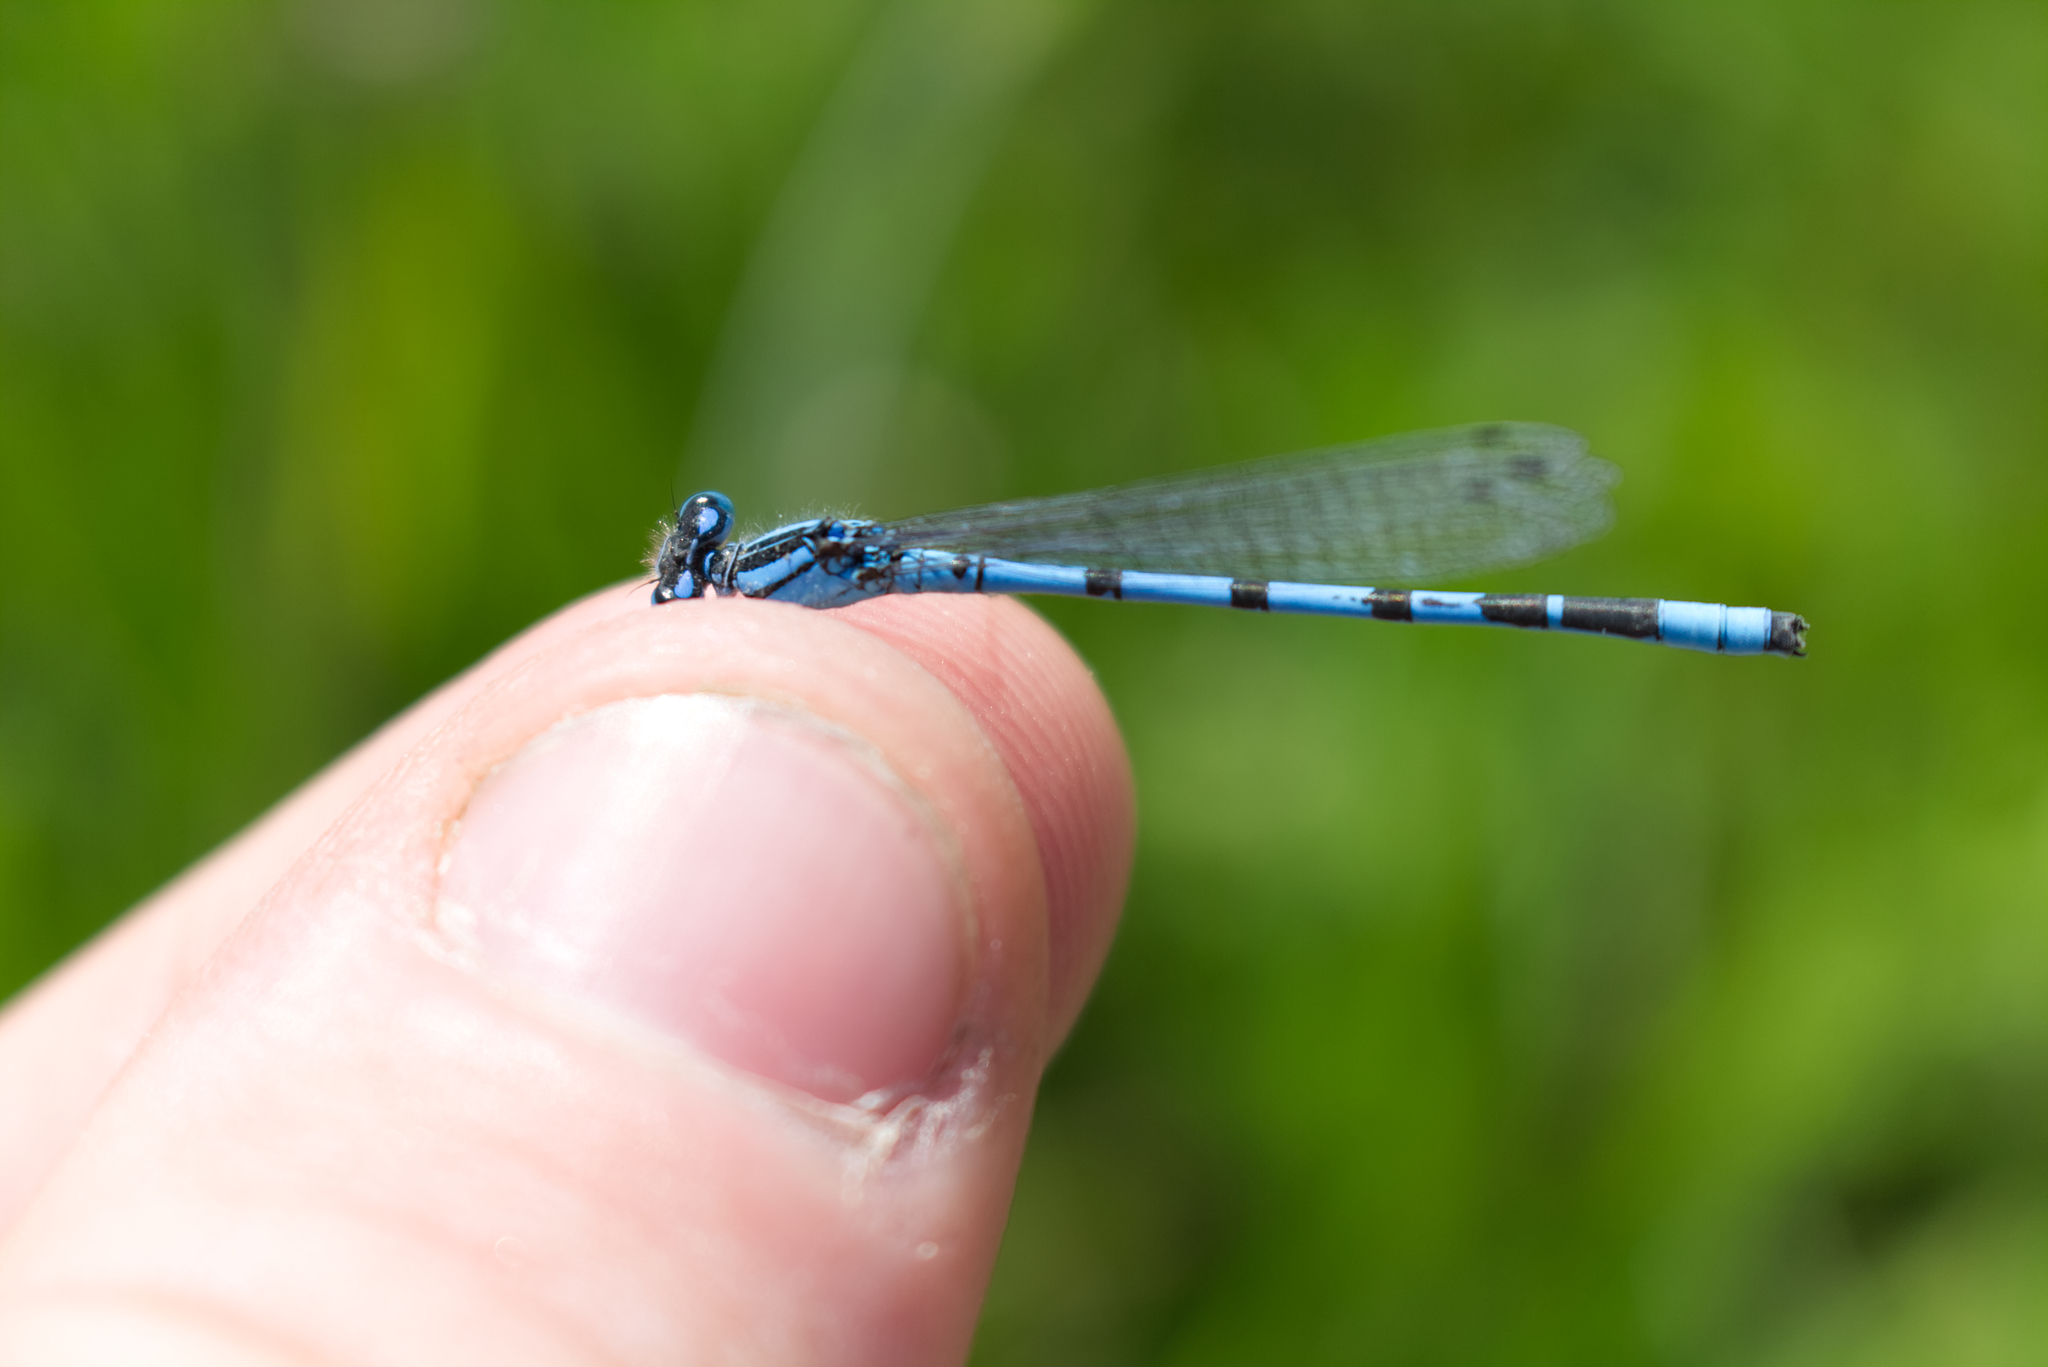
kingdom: Animalia
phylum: Arthropoda
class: Insecta
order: Odonata
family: Coenagrionidae
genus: Enallagma
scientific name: Enallagma cyathigerum
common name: Common blue damselfly
